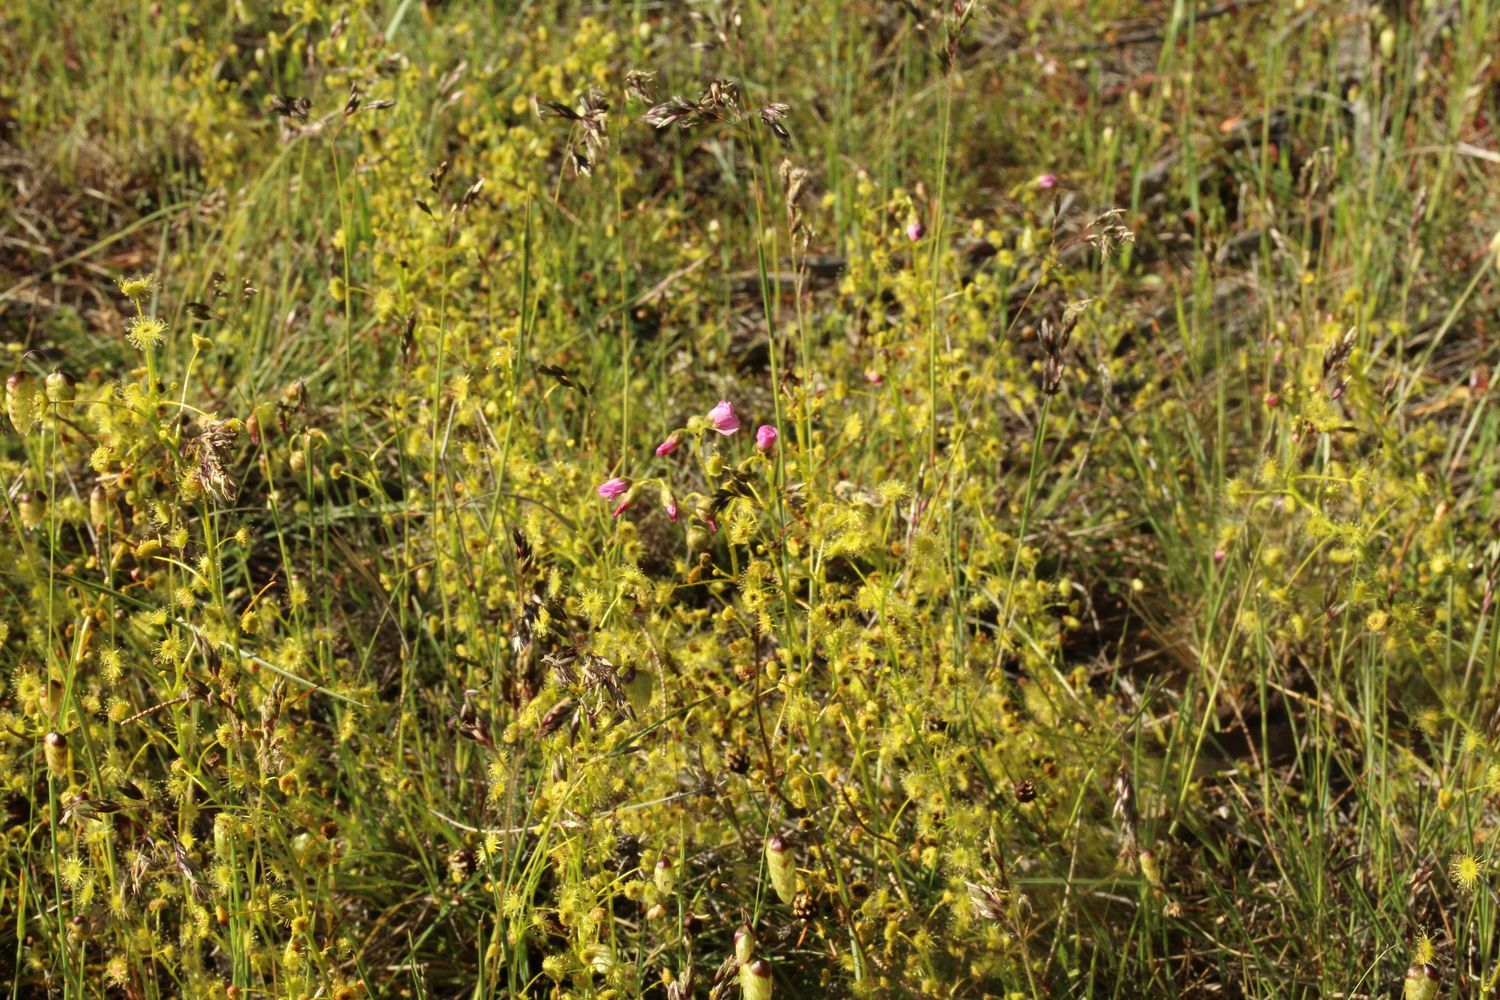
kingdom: Plantae
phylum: Tracheophyta
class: Magnoliopsida
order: Caryophyllales
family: Droseraceae
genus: Drosera
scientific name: Drosera stricticaulis
